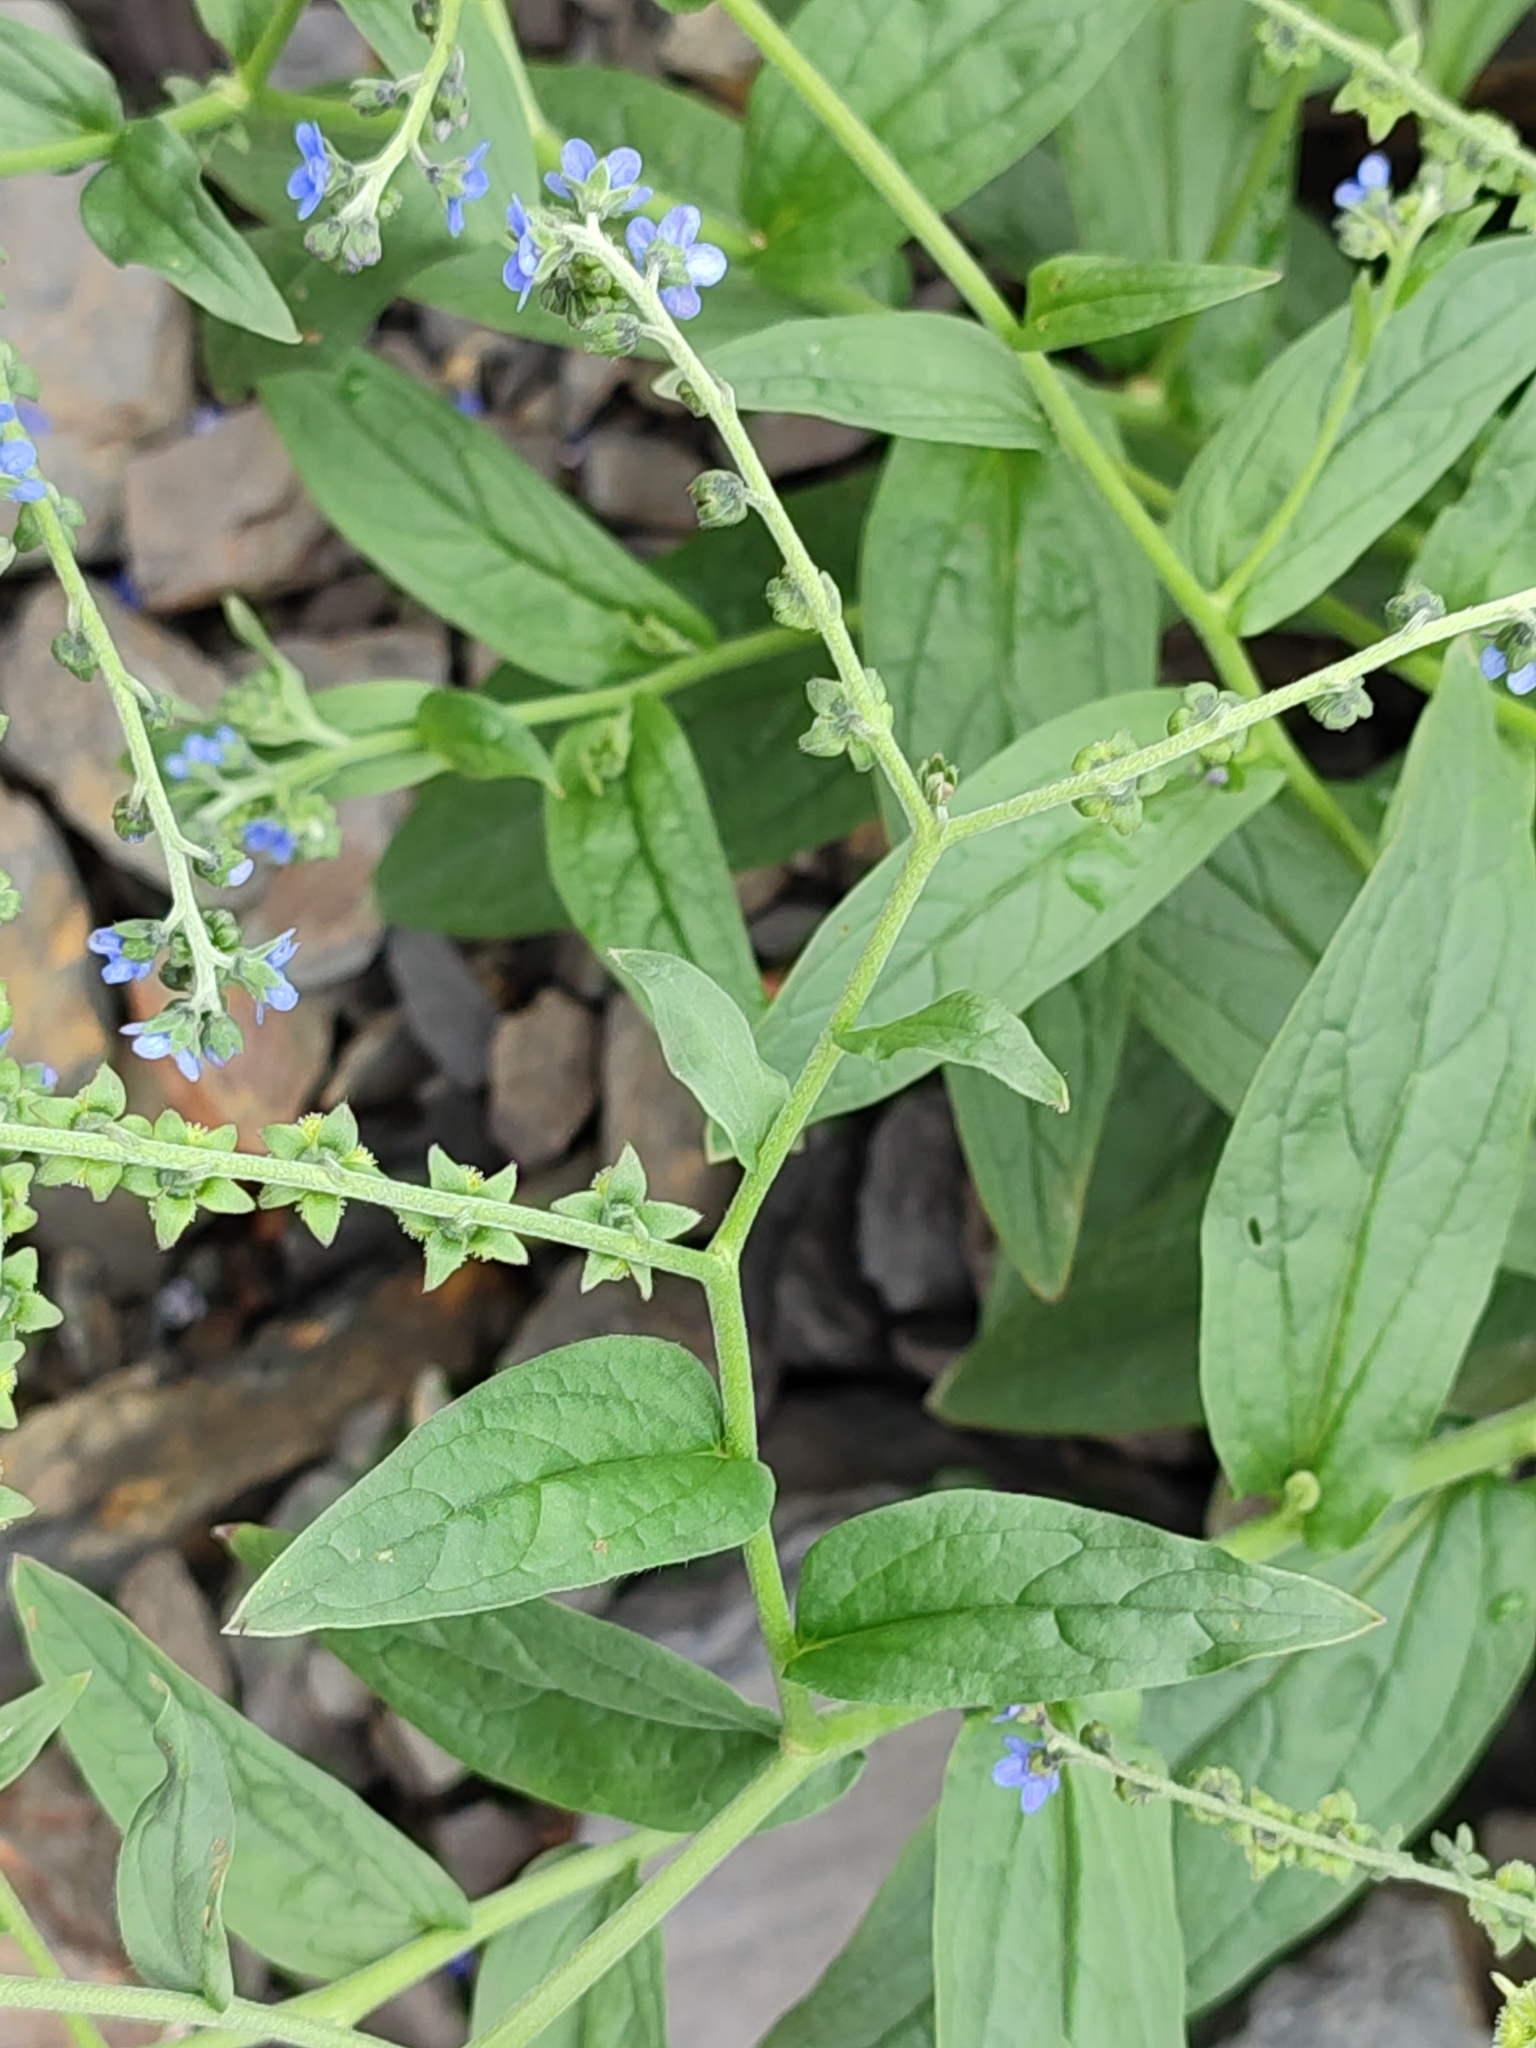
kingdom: Plantae
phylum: Tracheophyta
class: Magnoliopsida
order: Boraginales
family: Boraginaceae
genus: Cynoglossum
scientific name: Cynoglossum zeylanicum
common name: Ceylon hound's tongue
